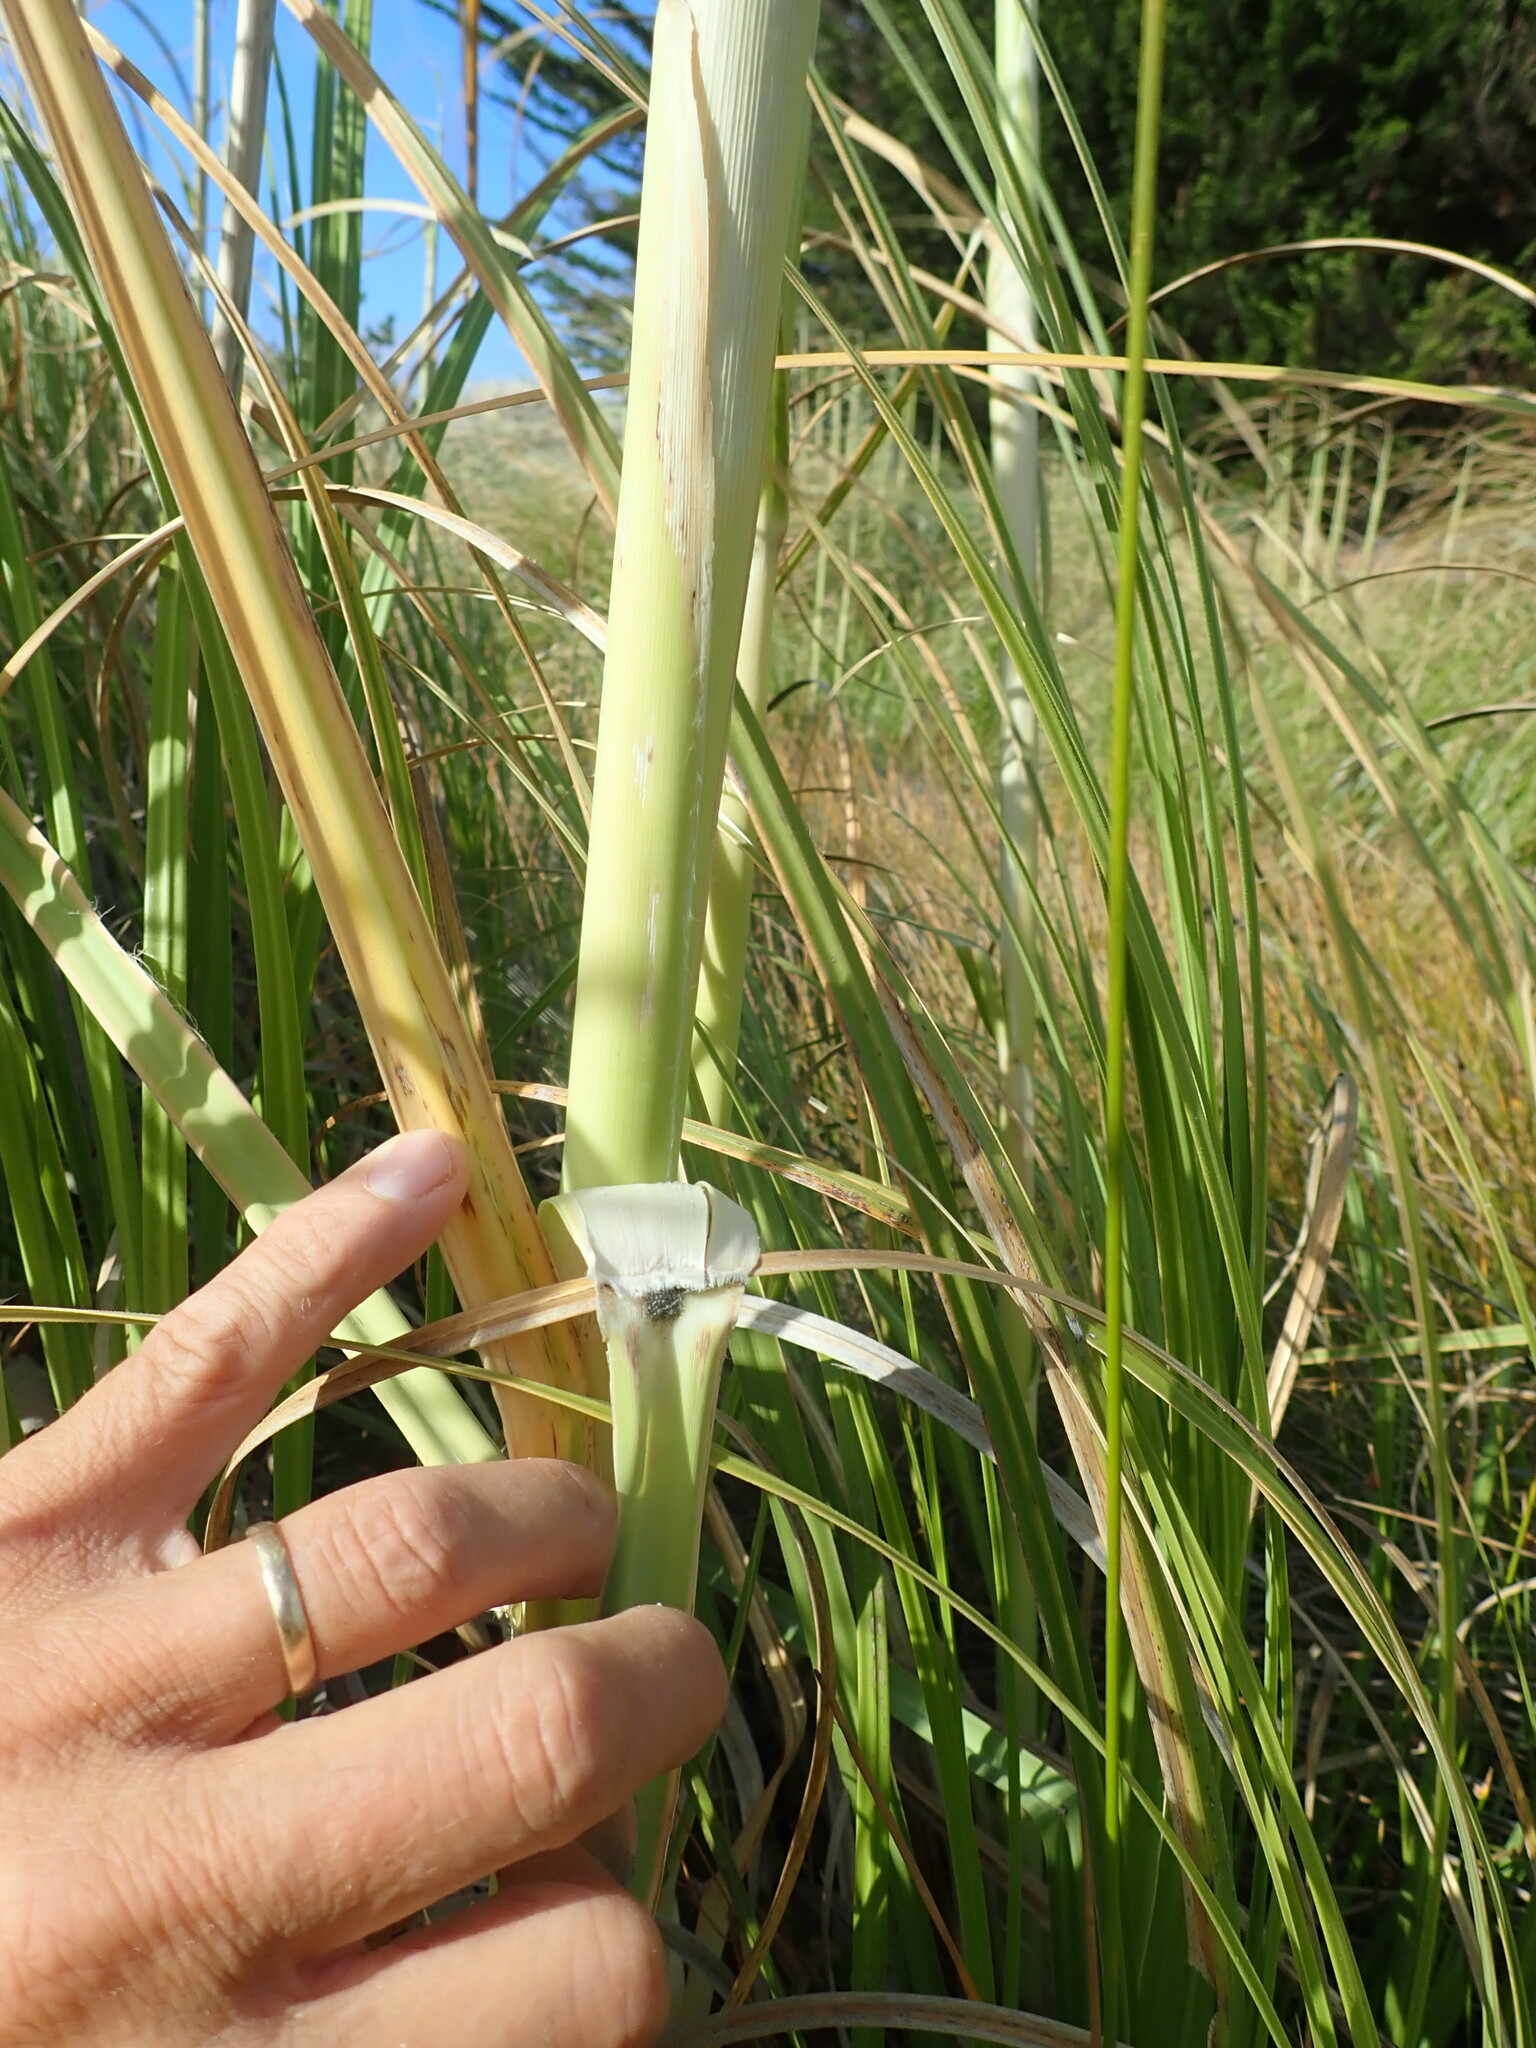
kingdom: Plantae
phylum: Tracheophyta
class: Liliopsida
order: Poales
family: Poaceae
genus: Cortaderia
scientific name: Cortaderia selloana
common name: Uruguayan pampas grass
